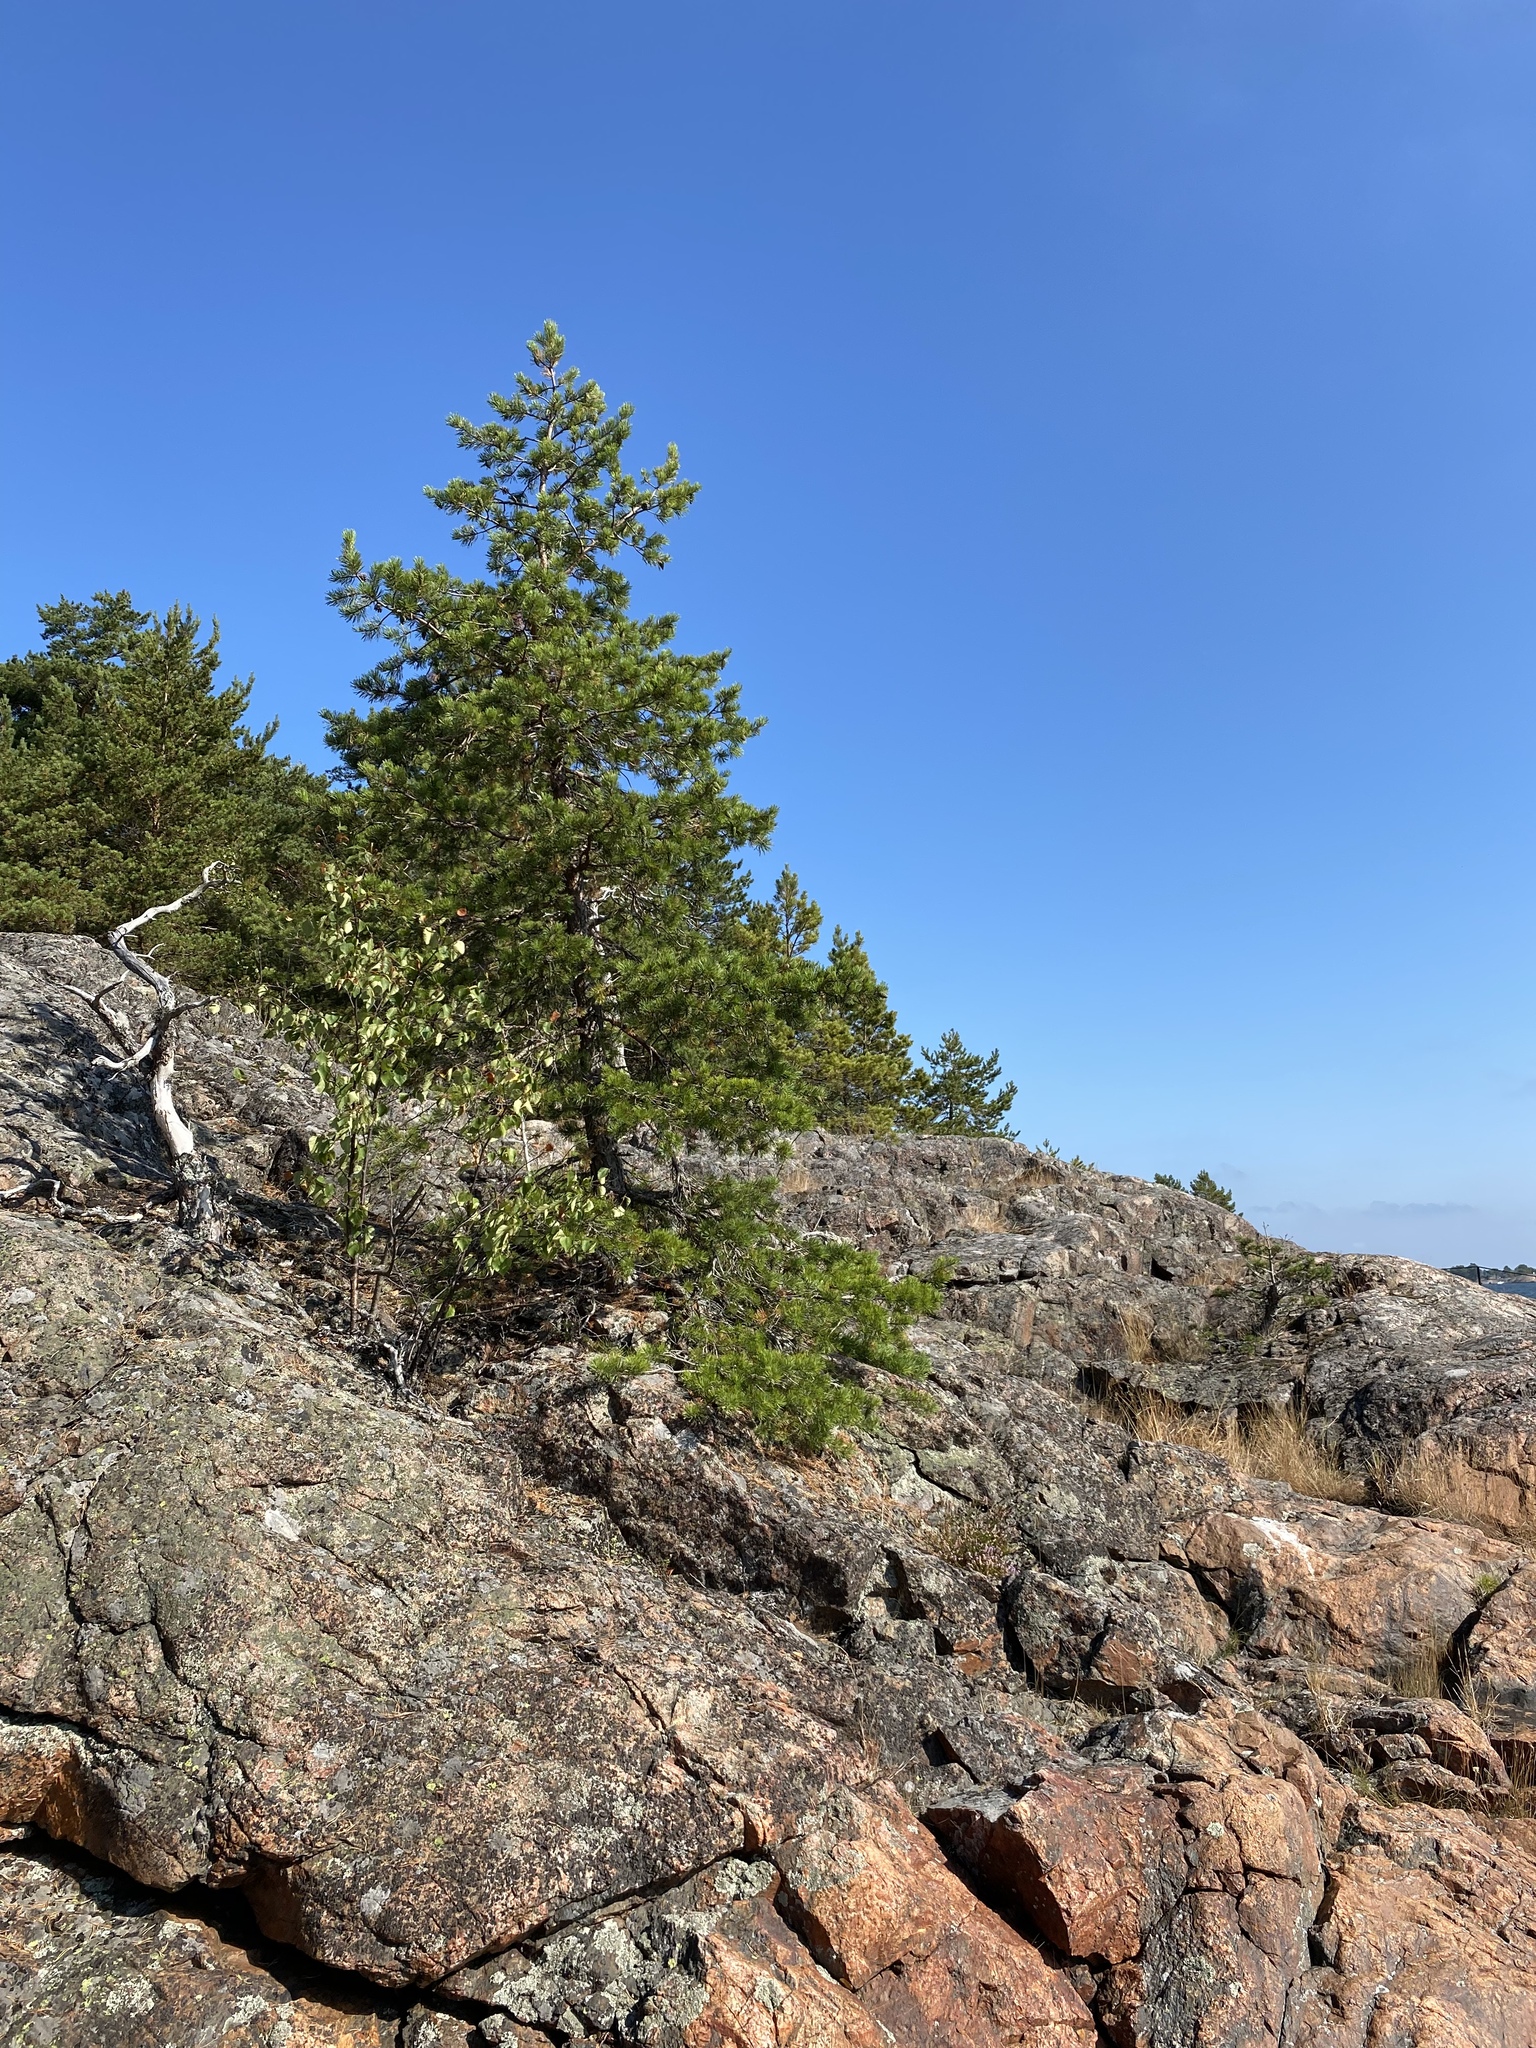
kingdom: Plantae
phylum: Tracheophyta
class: Pinopsida
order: Pinales
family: Pinaceae
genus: Pinus
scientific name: Pinus sylvestris
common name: Scots pine
